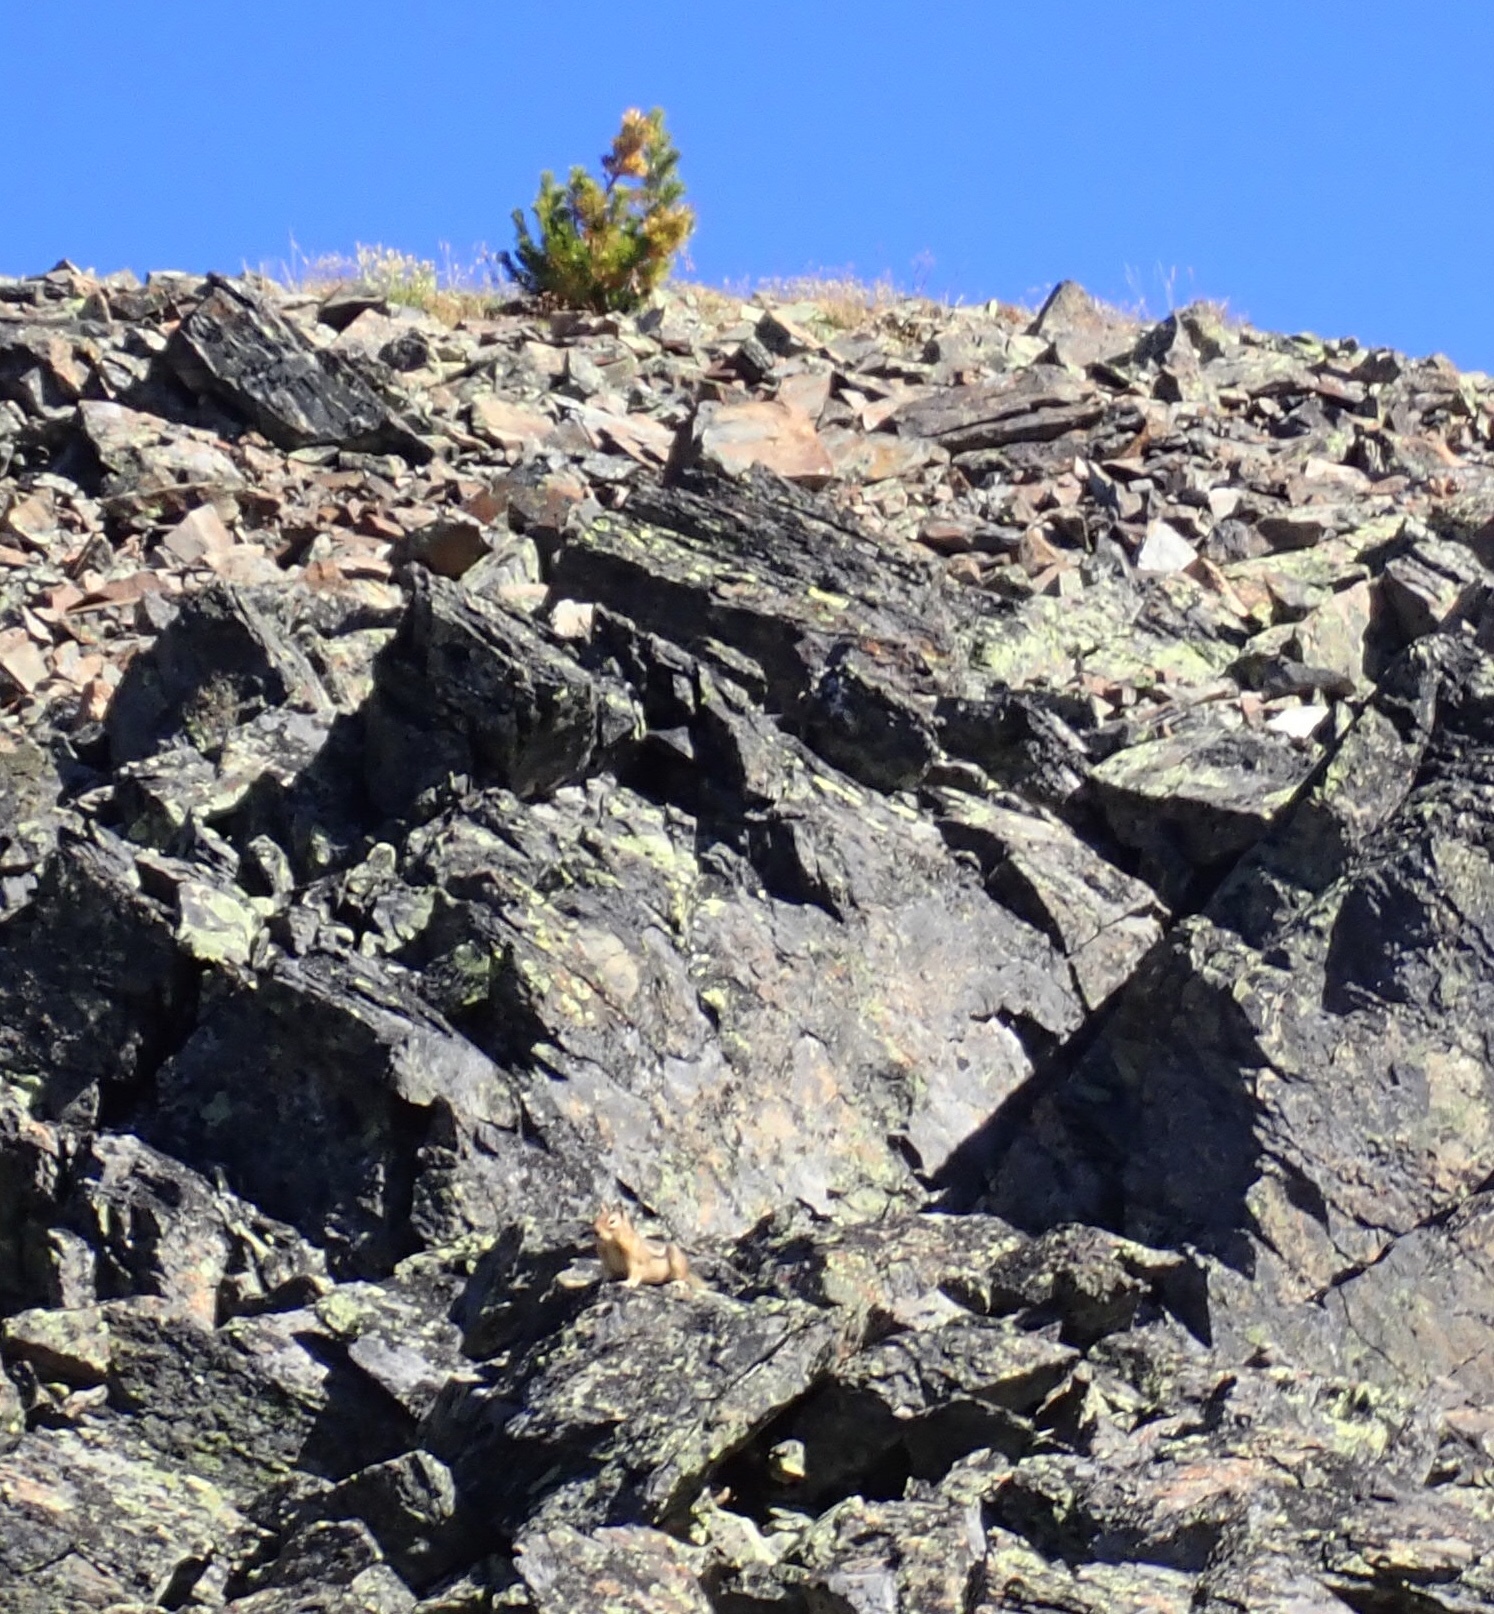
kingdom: Animalia
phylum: Chordata
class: Mammalia
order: Rodentia
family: Sciuridae
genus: Callospermophilus
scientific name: Callospermophilus saturatus
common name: Cascade golden-mantled ground squirrel
